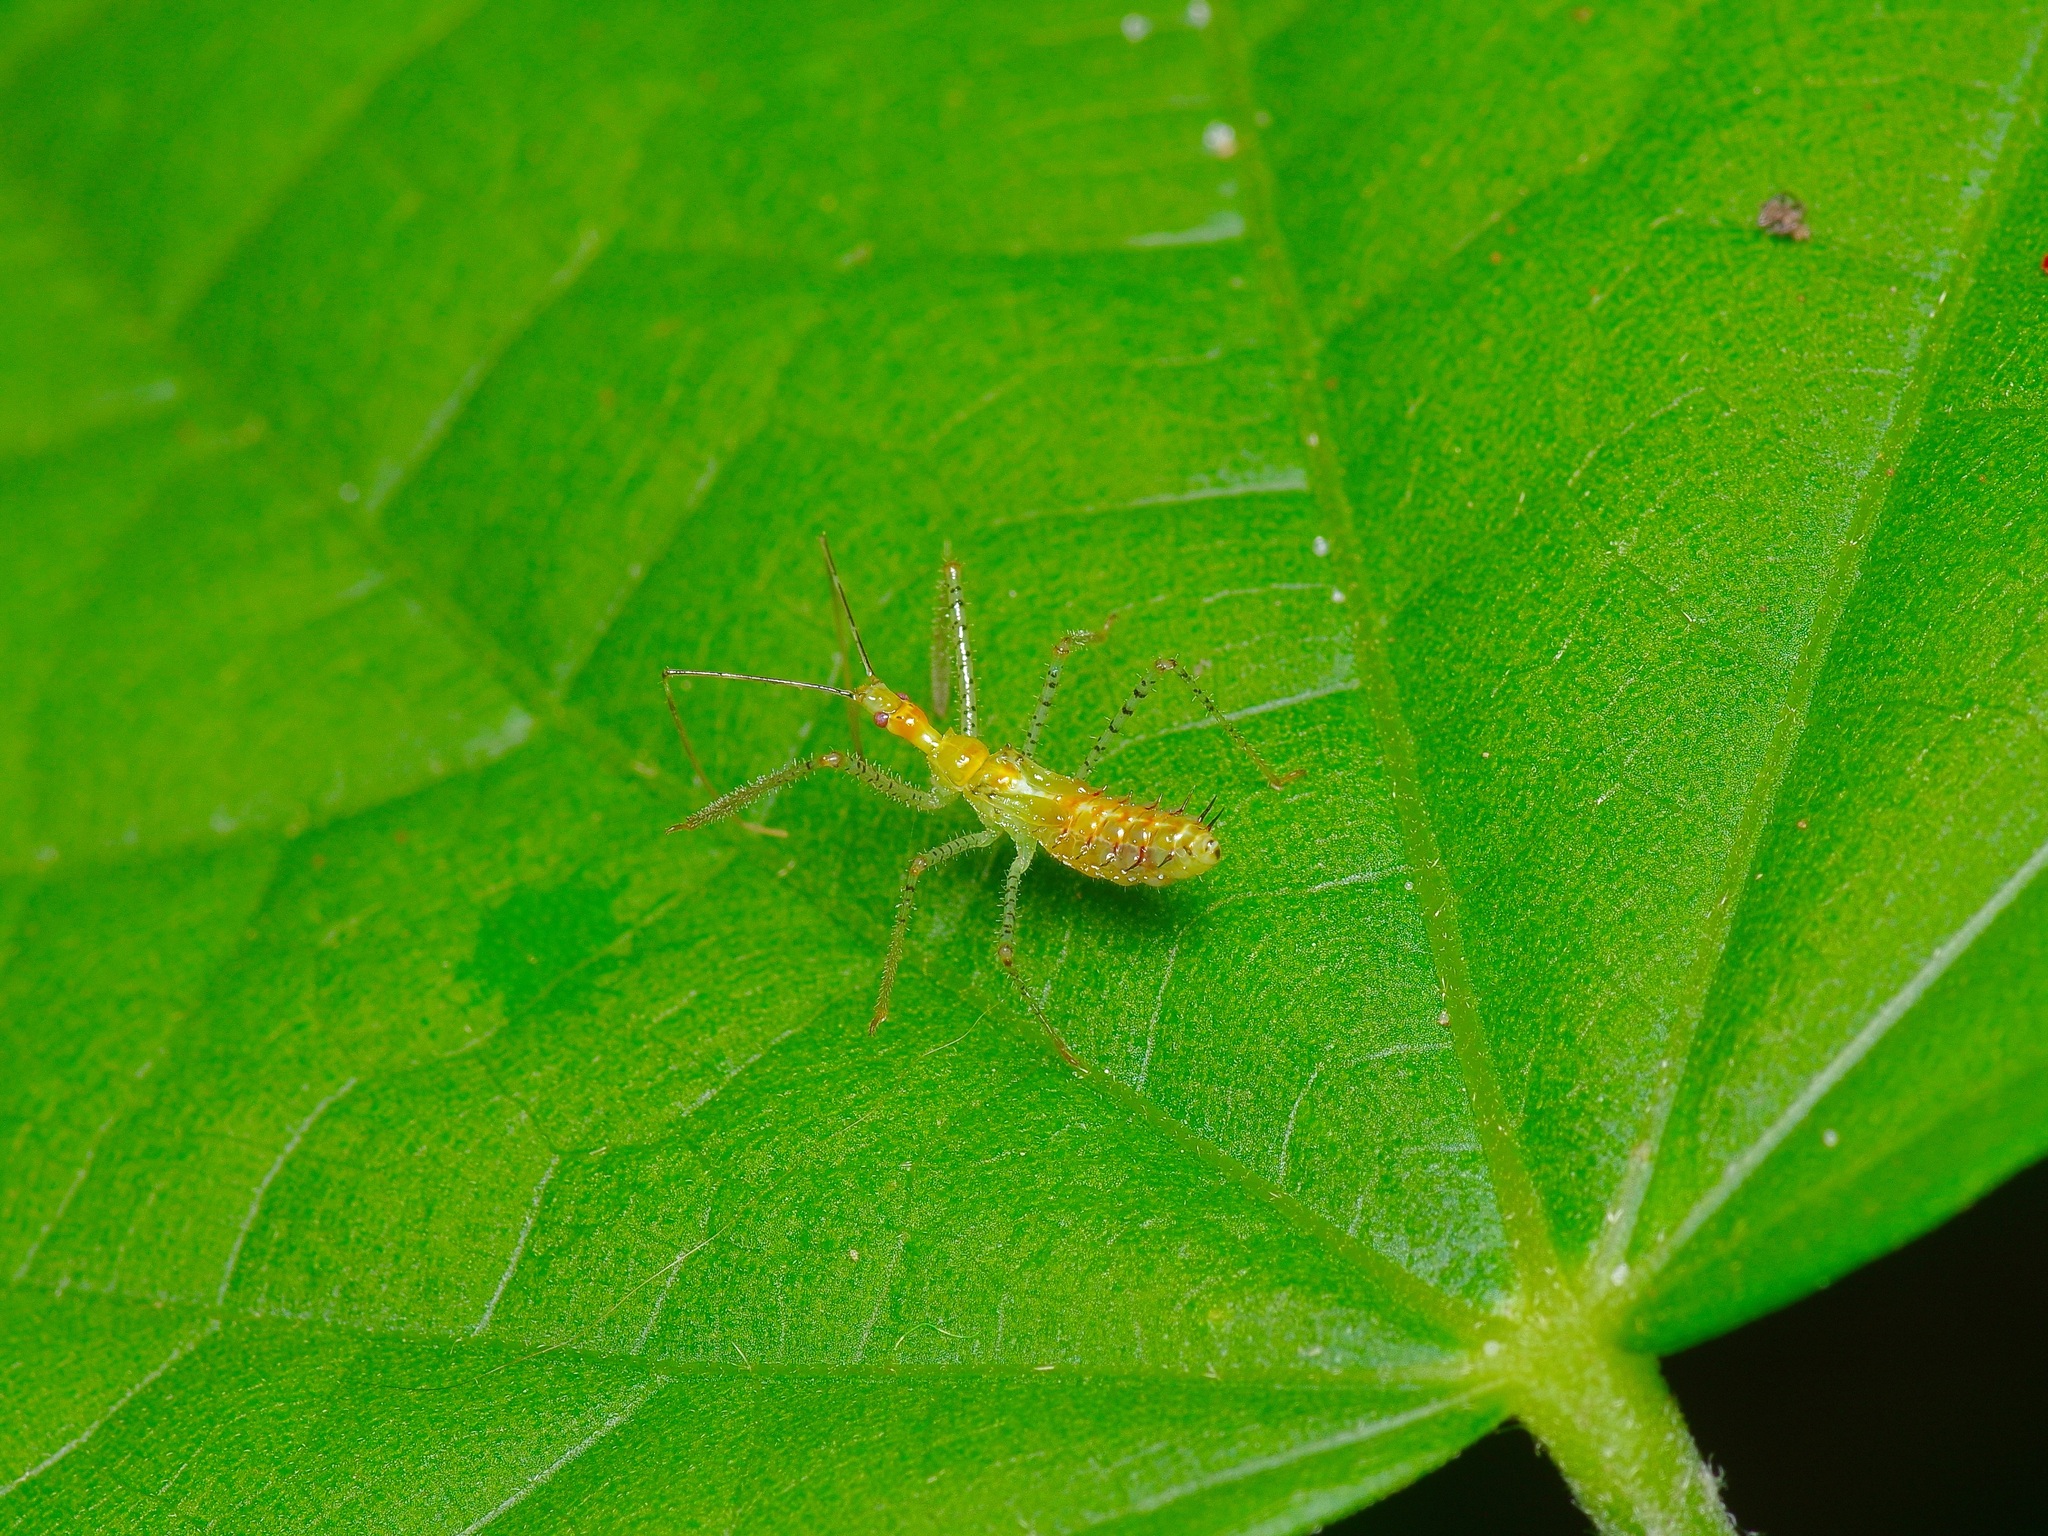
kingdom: Animalia
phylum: Arthropoda
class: Insecta
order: Hemiptera
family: Reduviidae
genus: Zelus
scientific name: Zelus renardii
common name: Assassin bug
